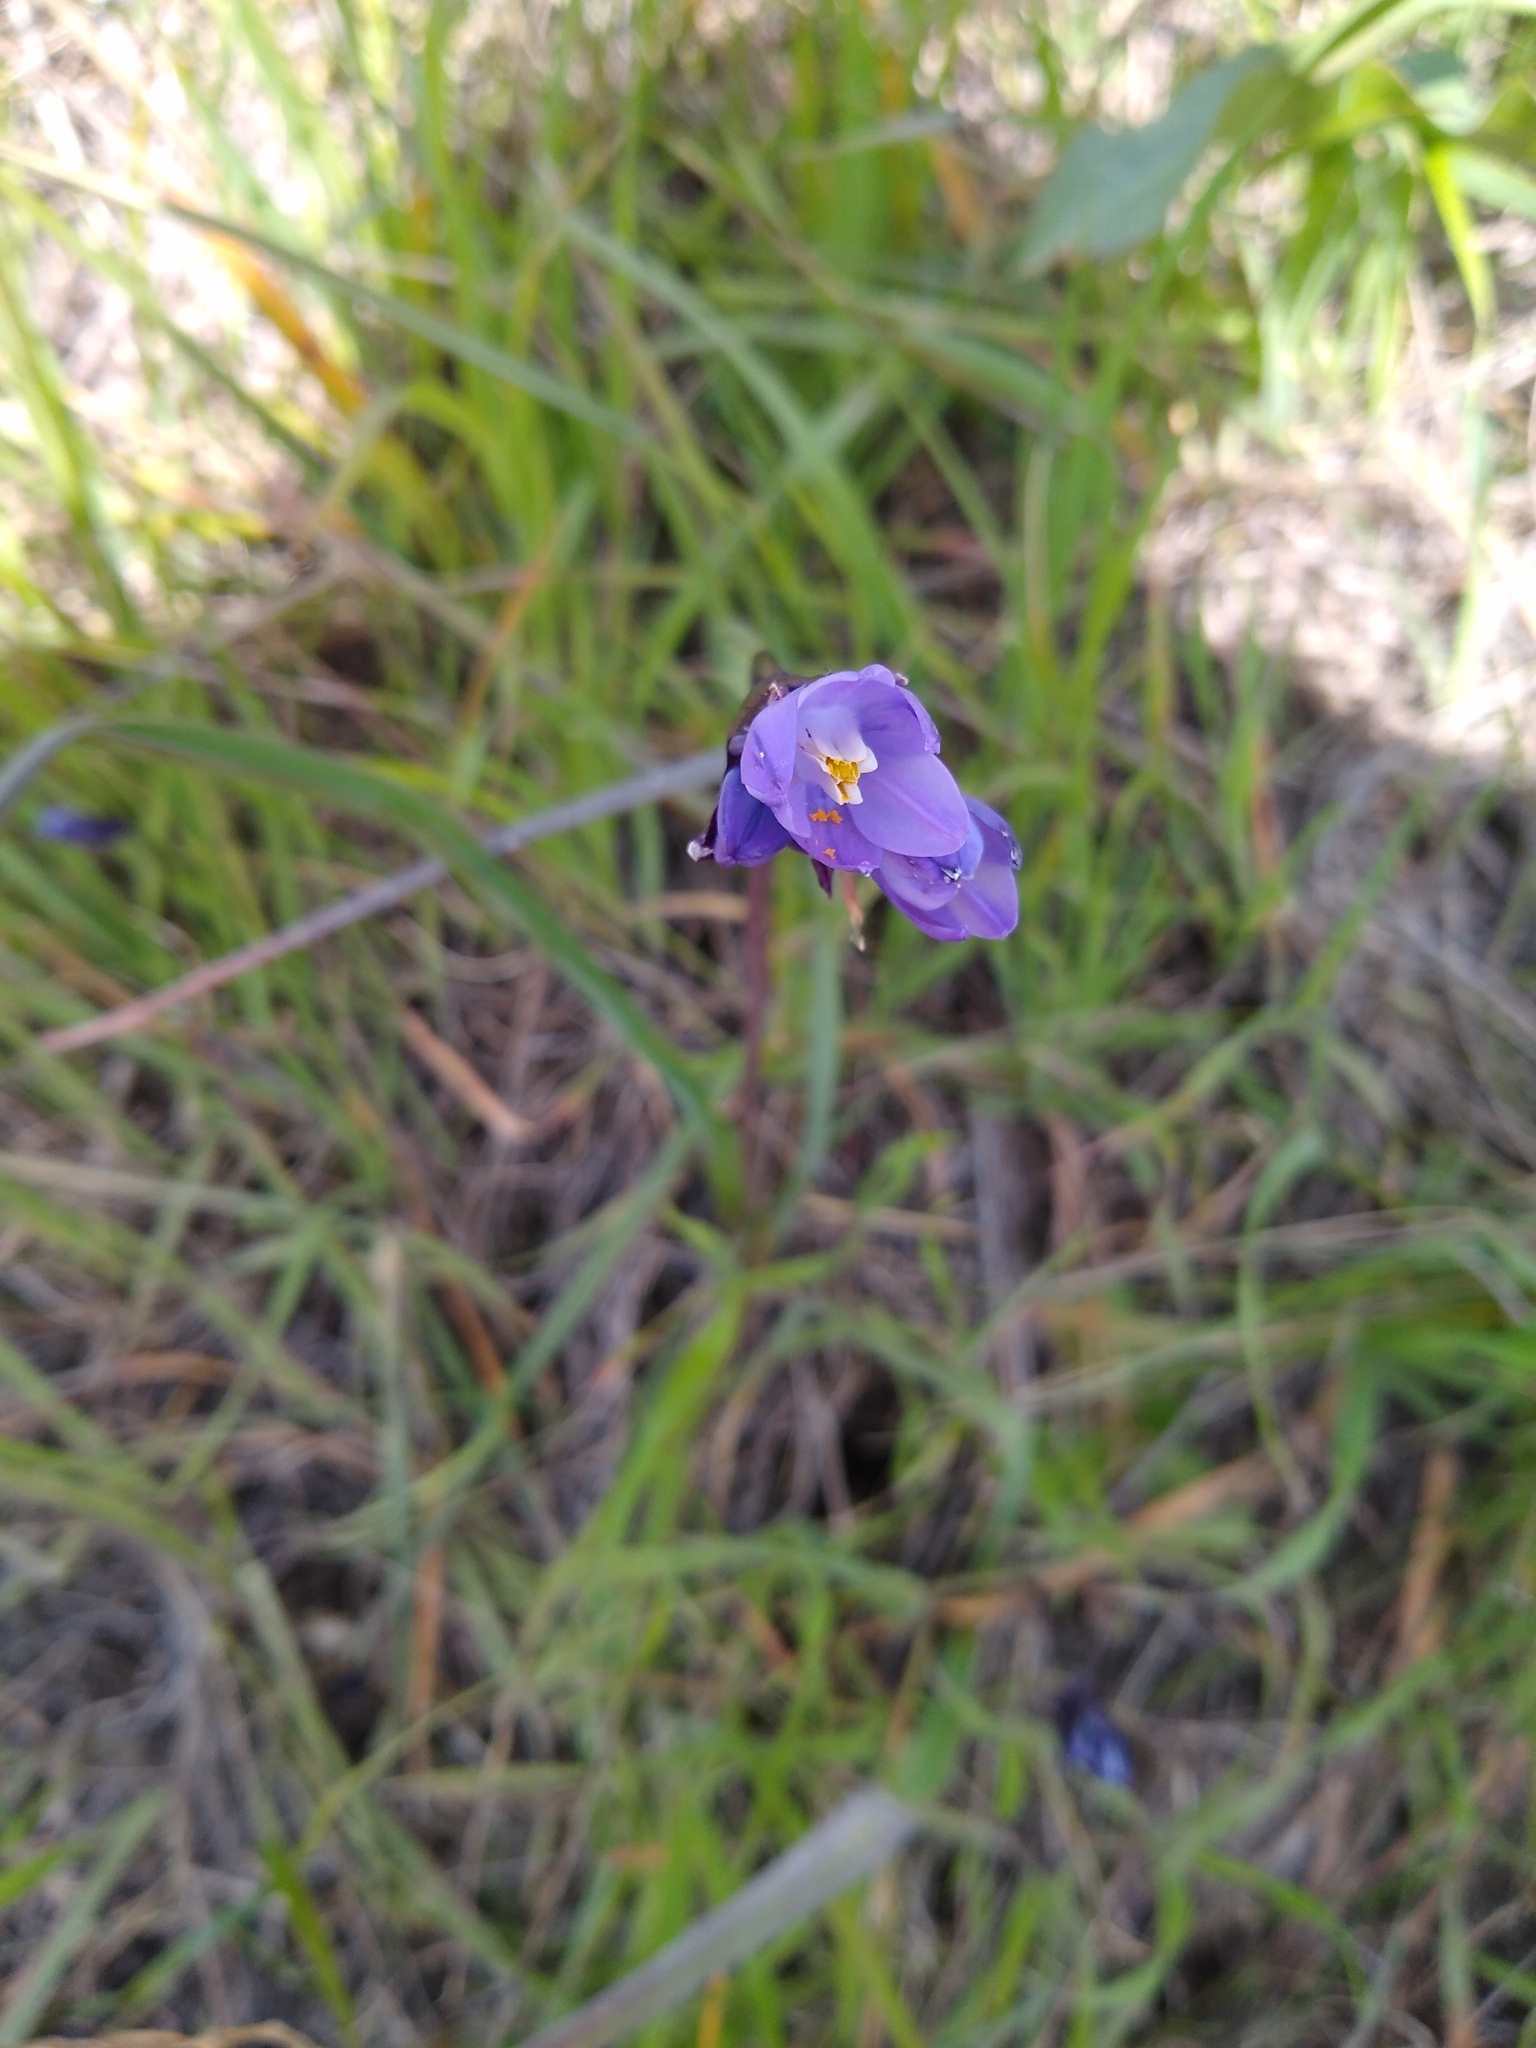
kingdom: Plantae
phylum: Tracheophyta
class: Liliopsida
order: Asparagales
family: Asparagaceae
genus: Dipterostemon
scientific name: Dipterostemon capitatus
